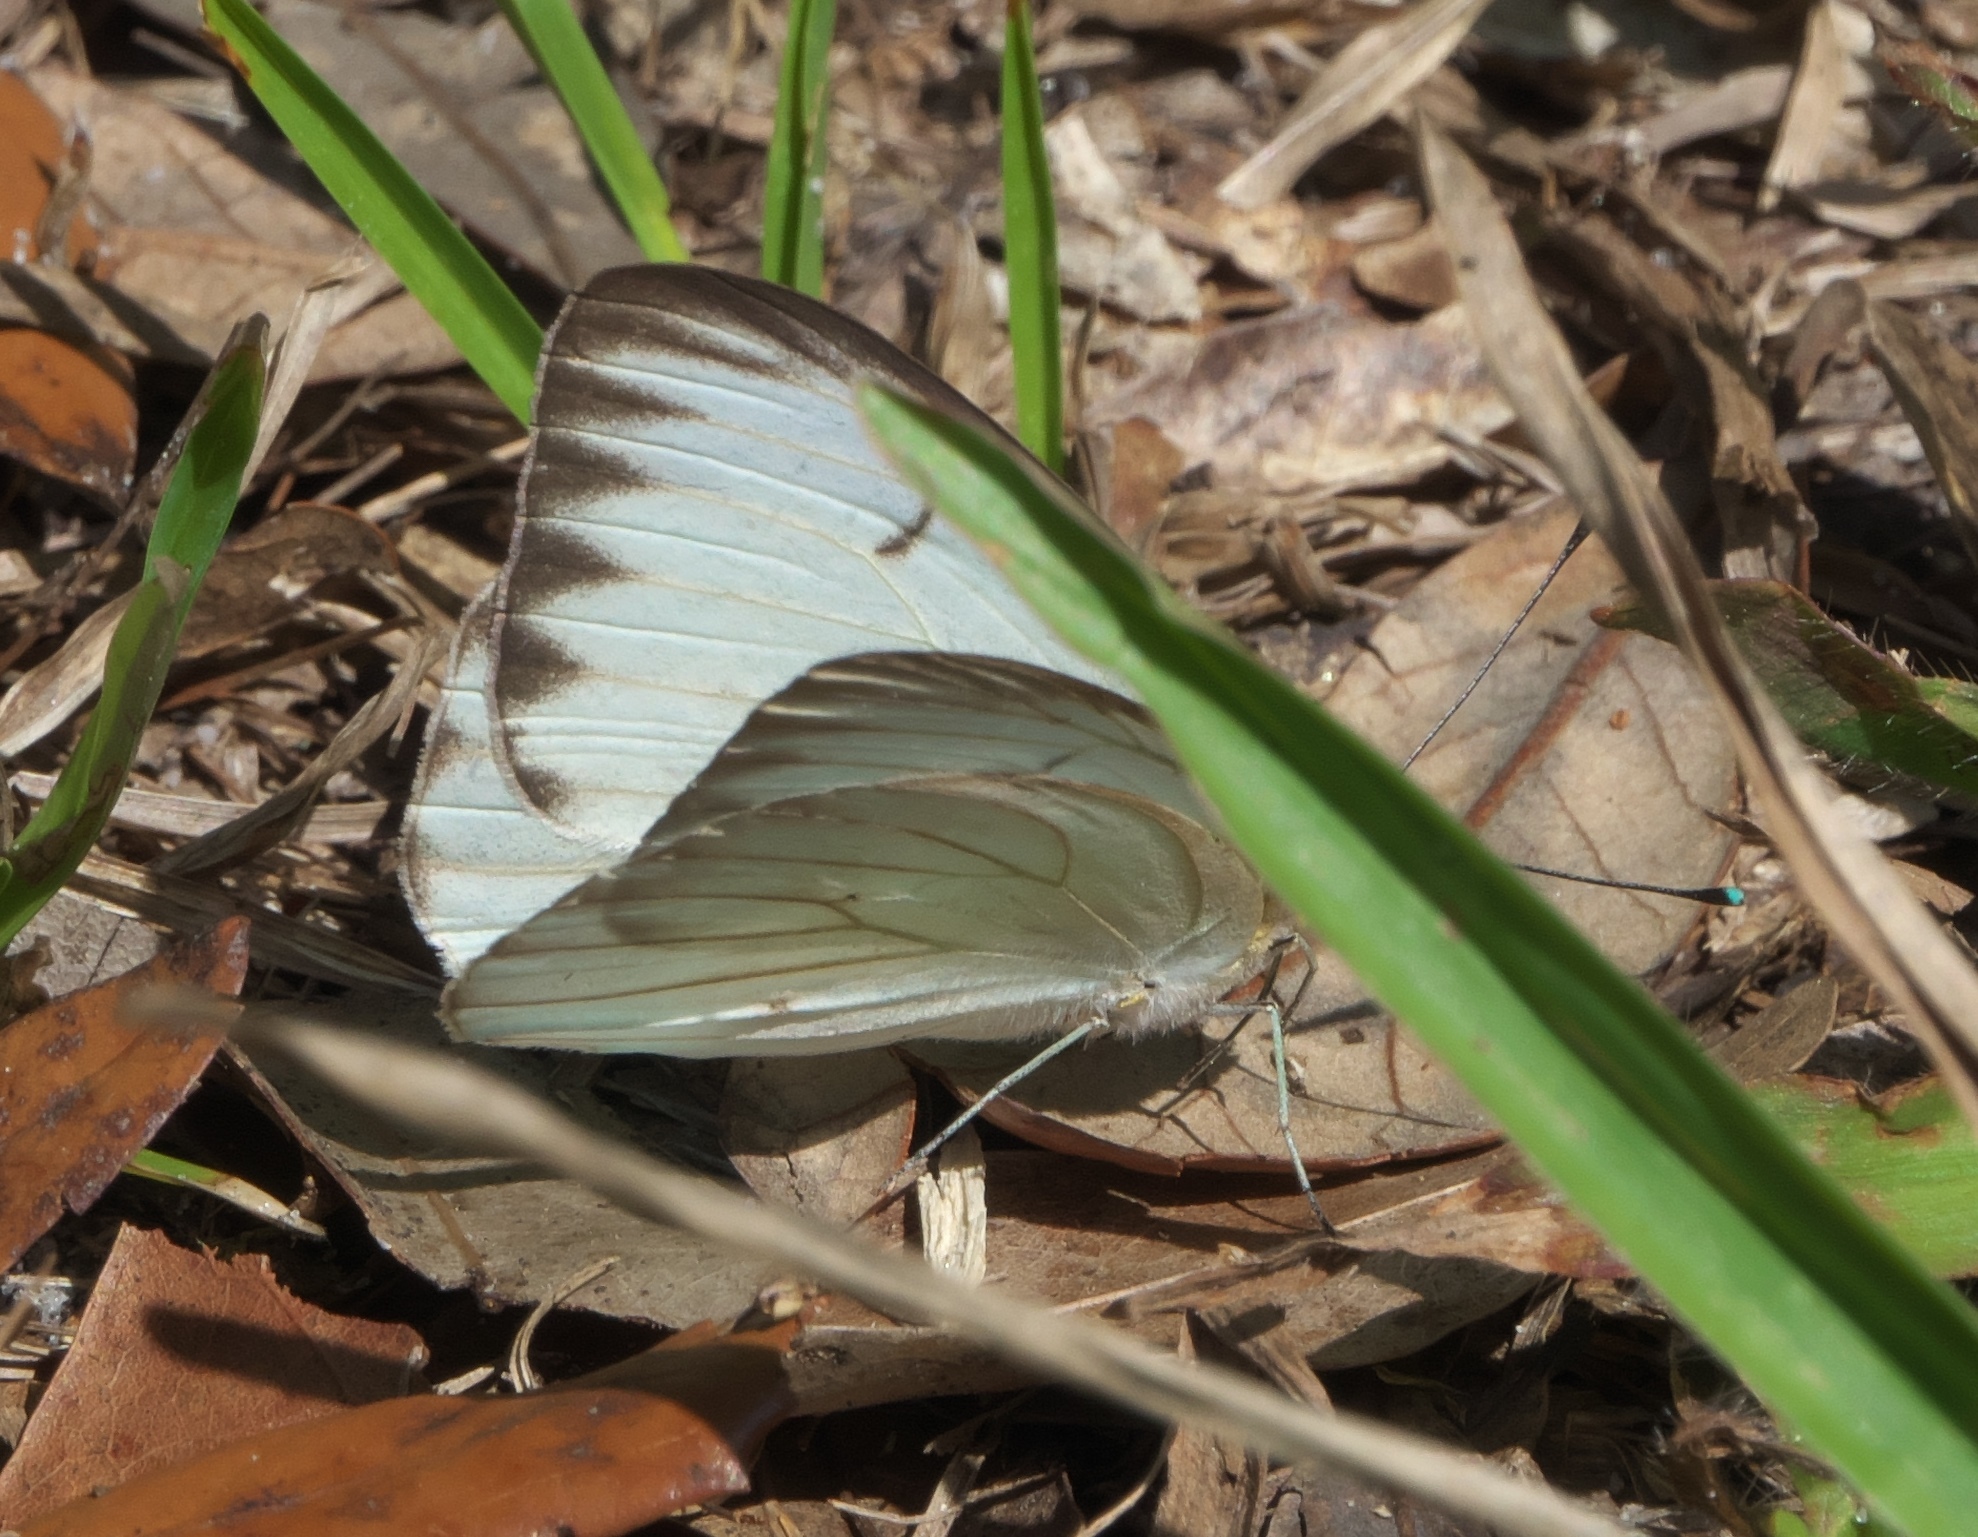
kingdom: Animalia
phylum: Arthropoda
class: Insecta
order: Lepidoptera
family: Pieridae
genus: Ascia
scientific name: Ascia monuste
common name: Great southern white
